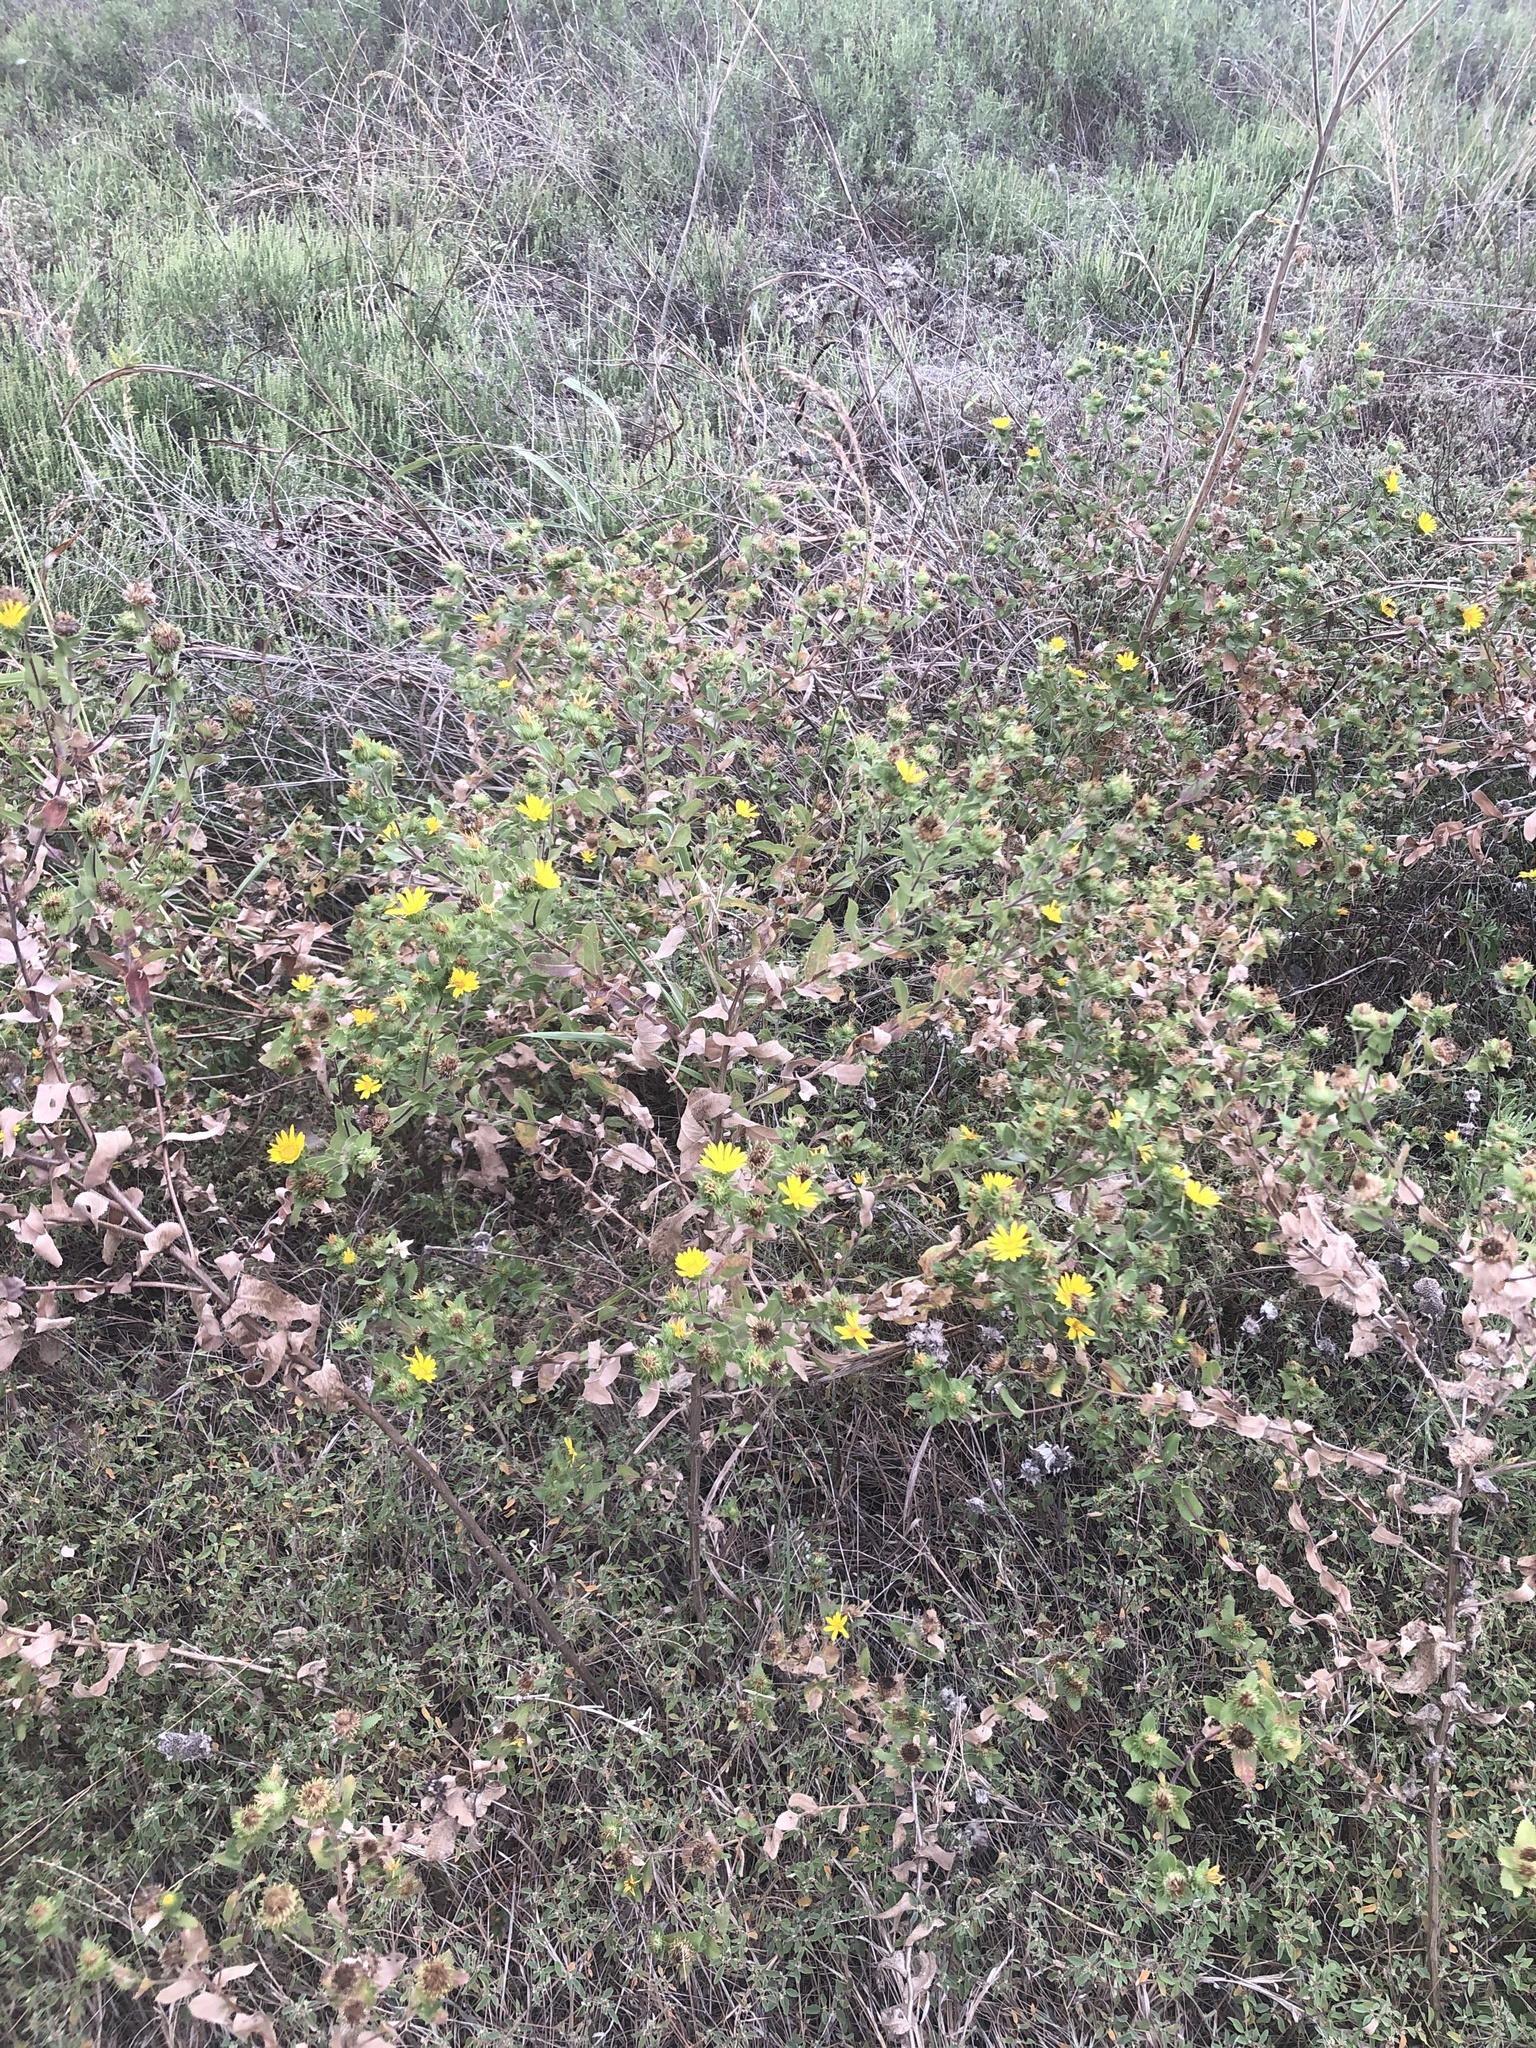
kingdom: Plantae
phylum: Tracheophyta
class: Magnoliopsida
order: Asterales
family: Asteraceae
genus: Grindelia
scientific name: Grindelia adenodonta
